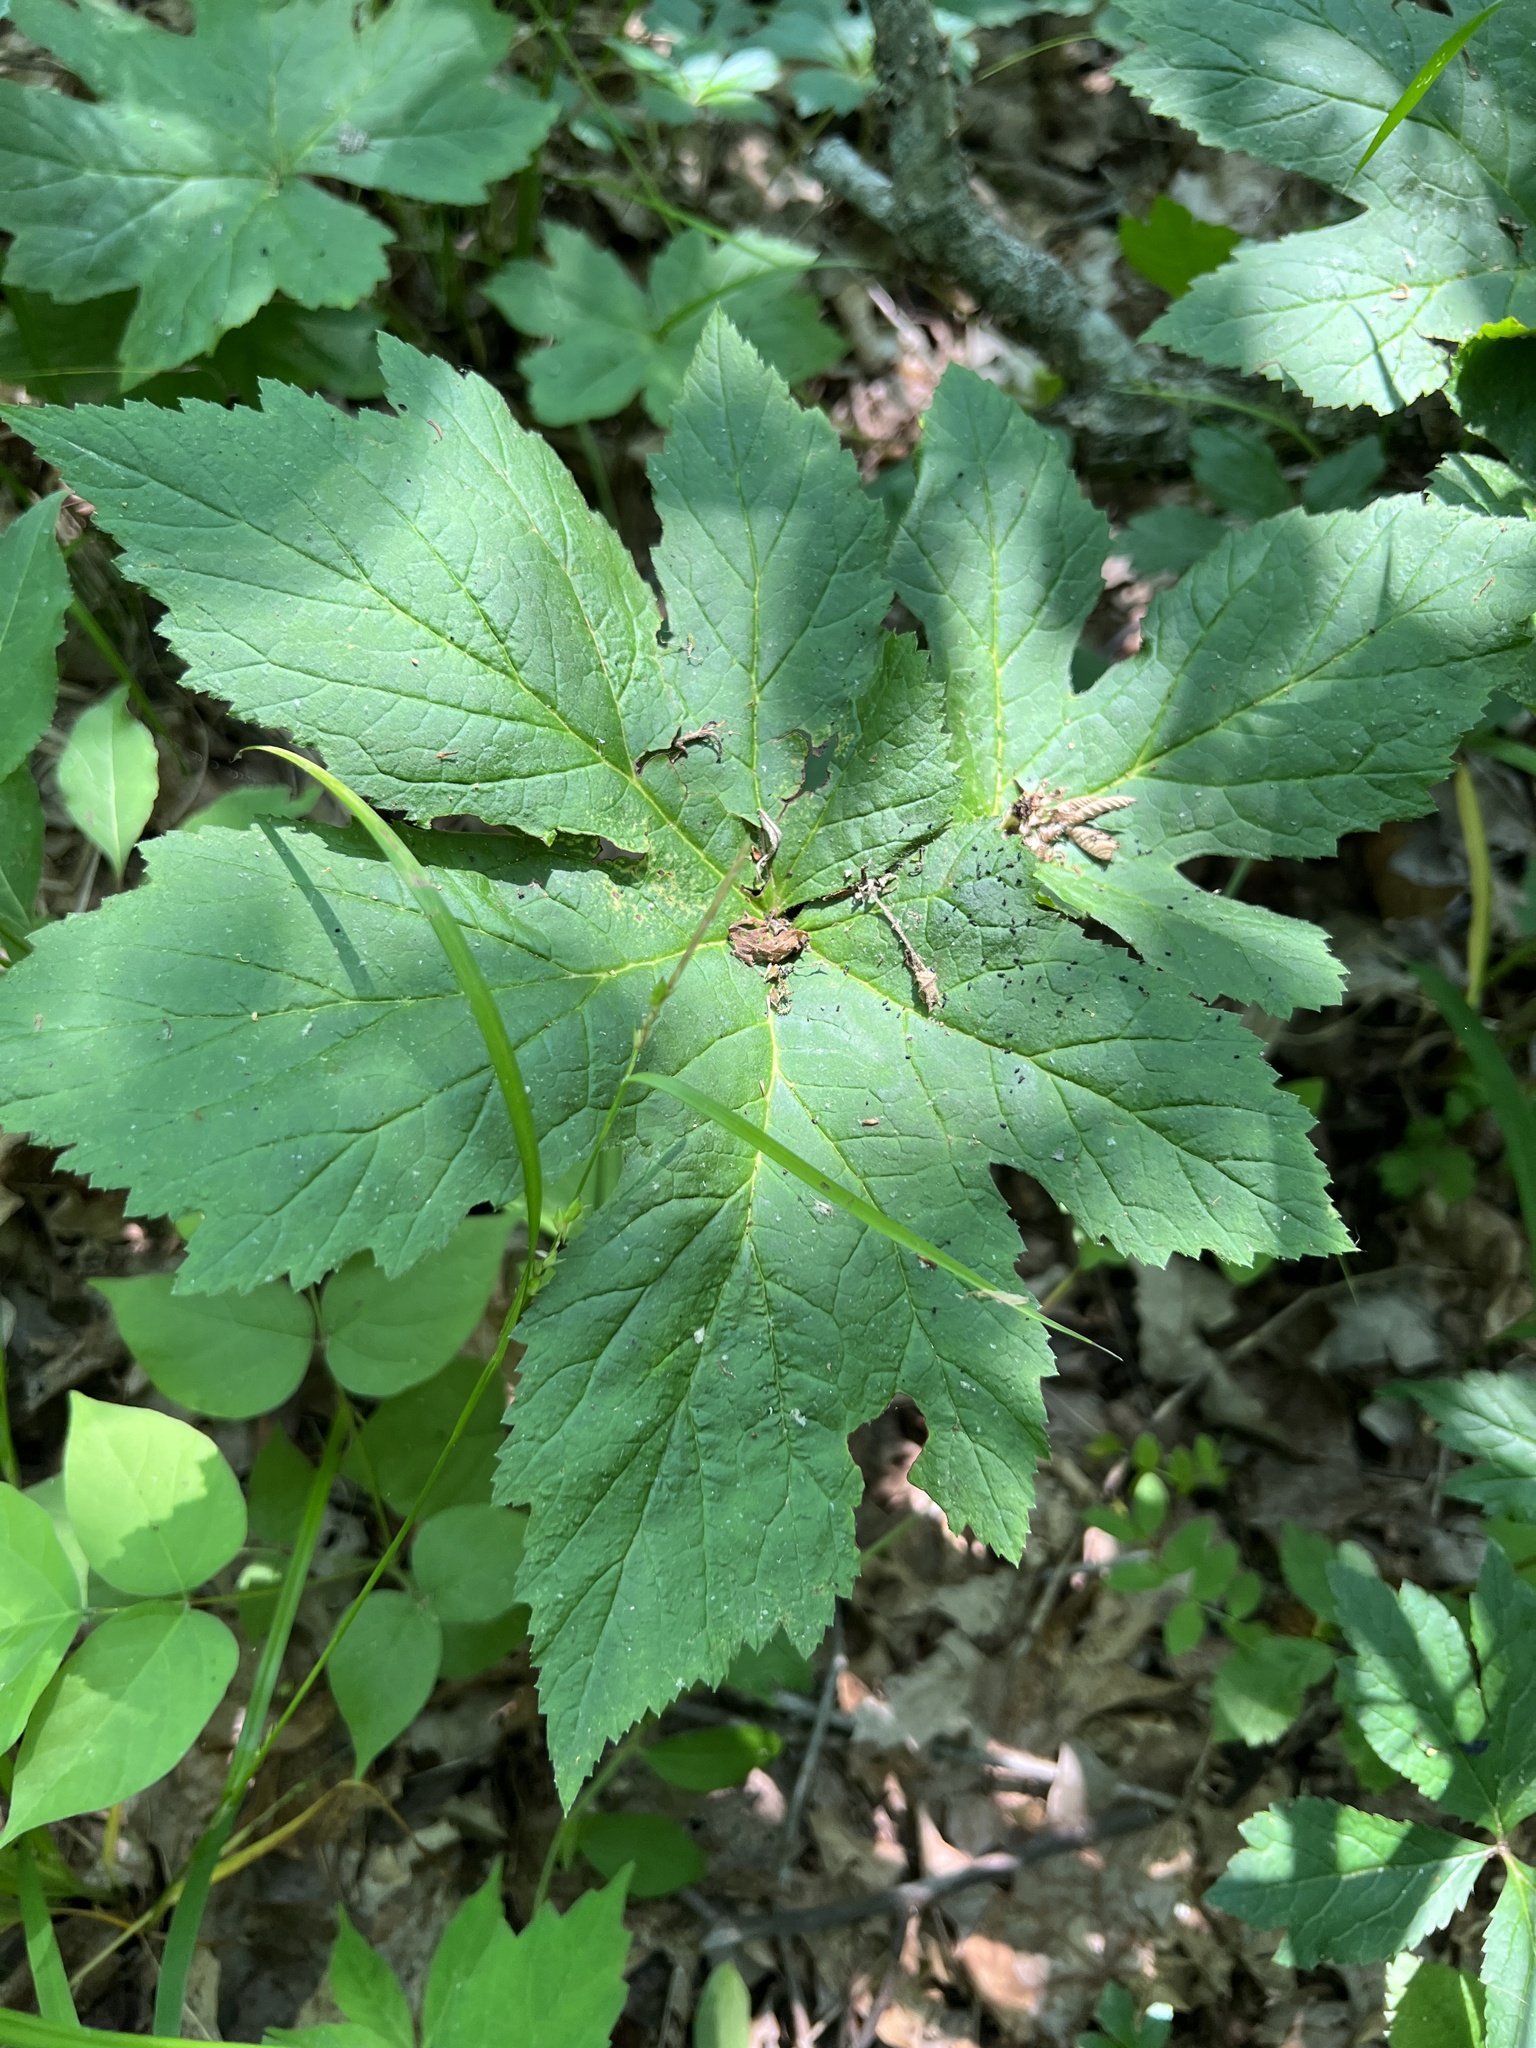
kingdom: Plantae
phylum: Tracheophyta
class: Magnoliopsida
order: Ranunculales
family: Ranunculaceae
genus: Hydrastis
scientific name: Hydrastis canadensis
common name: Goldenseal
